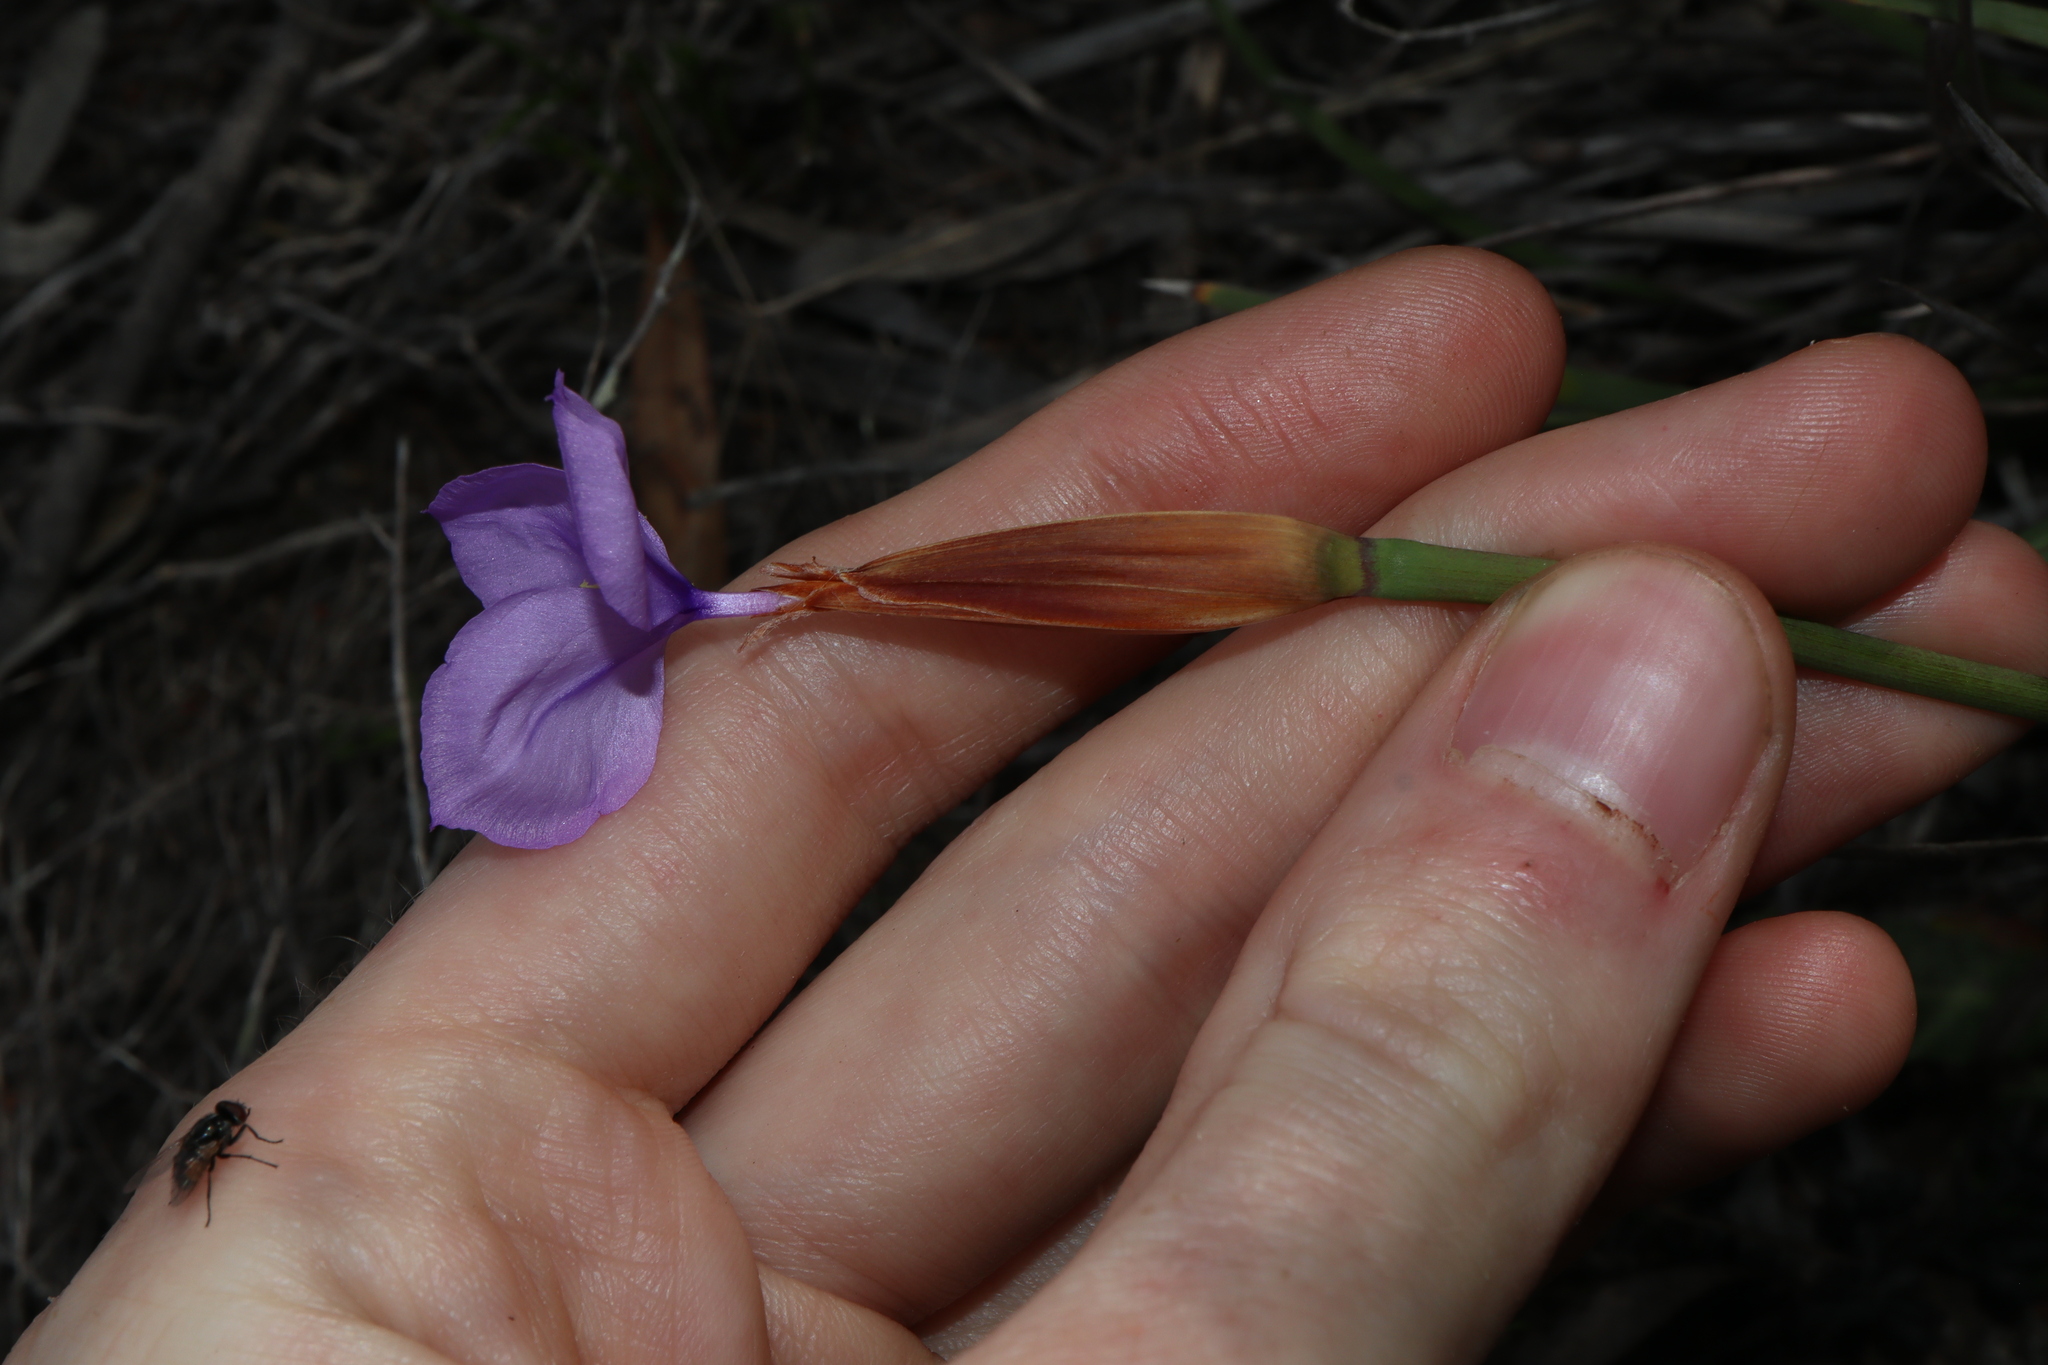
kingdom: Plantae
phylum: Tracheophyta
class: Liliopsida
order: Asparagales
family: Iridaceae
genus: Patersonia
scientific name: Patersonia occidentalis
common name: Long purple-flag
